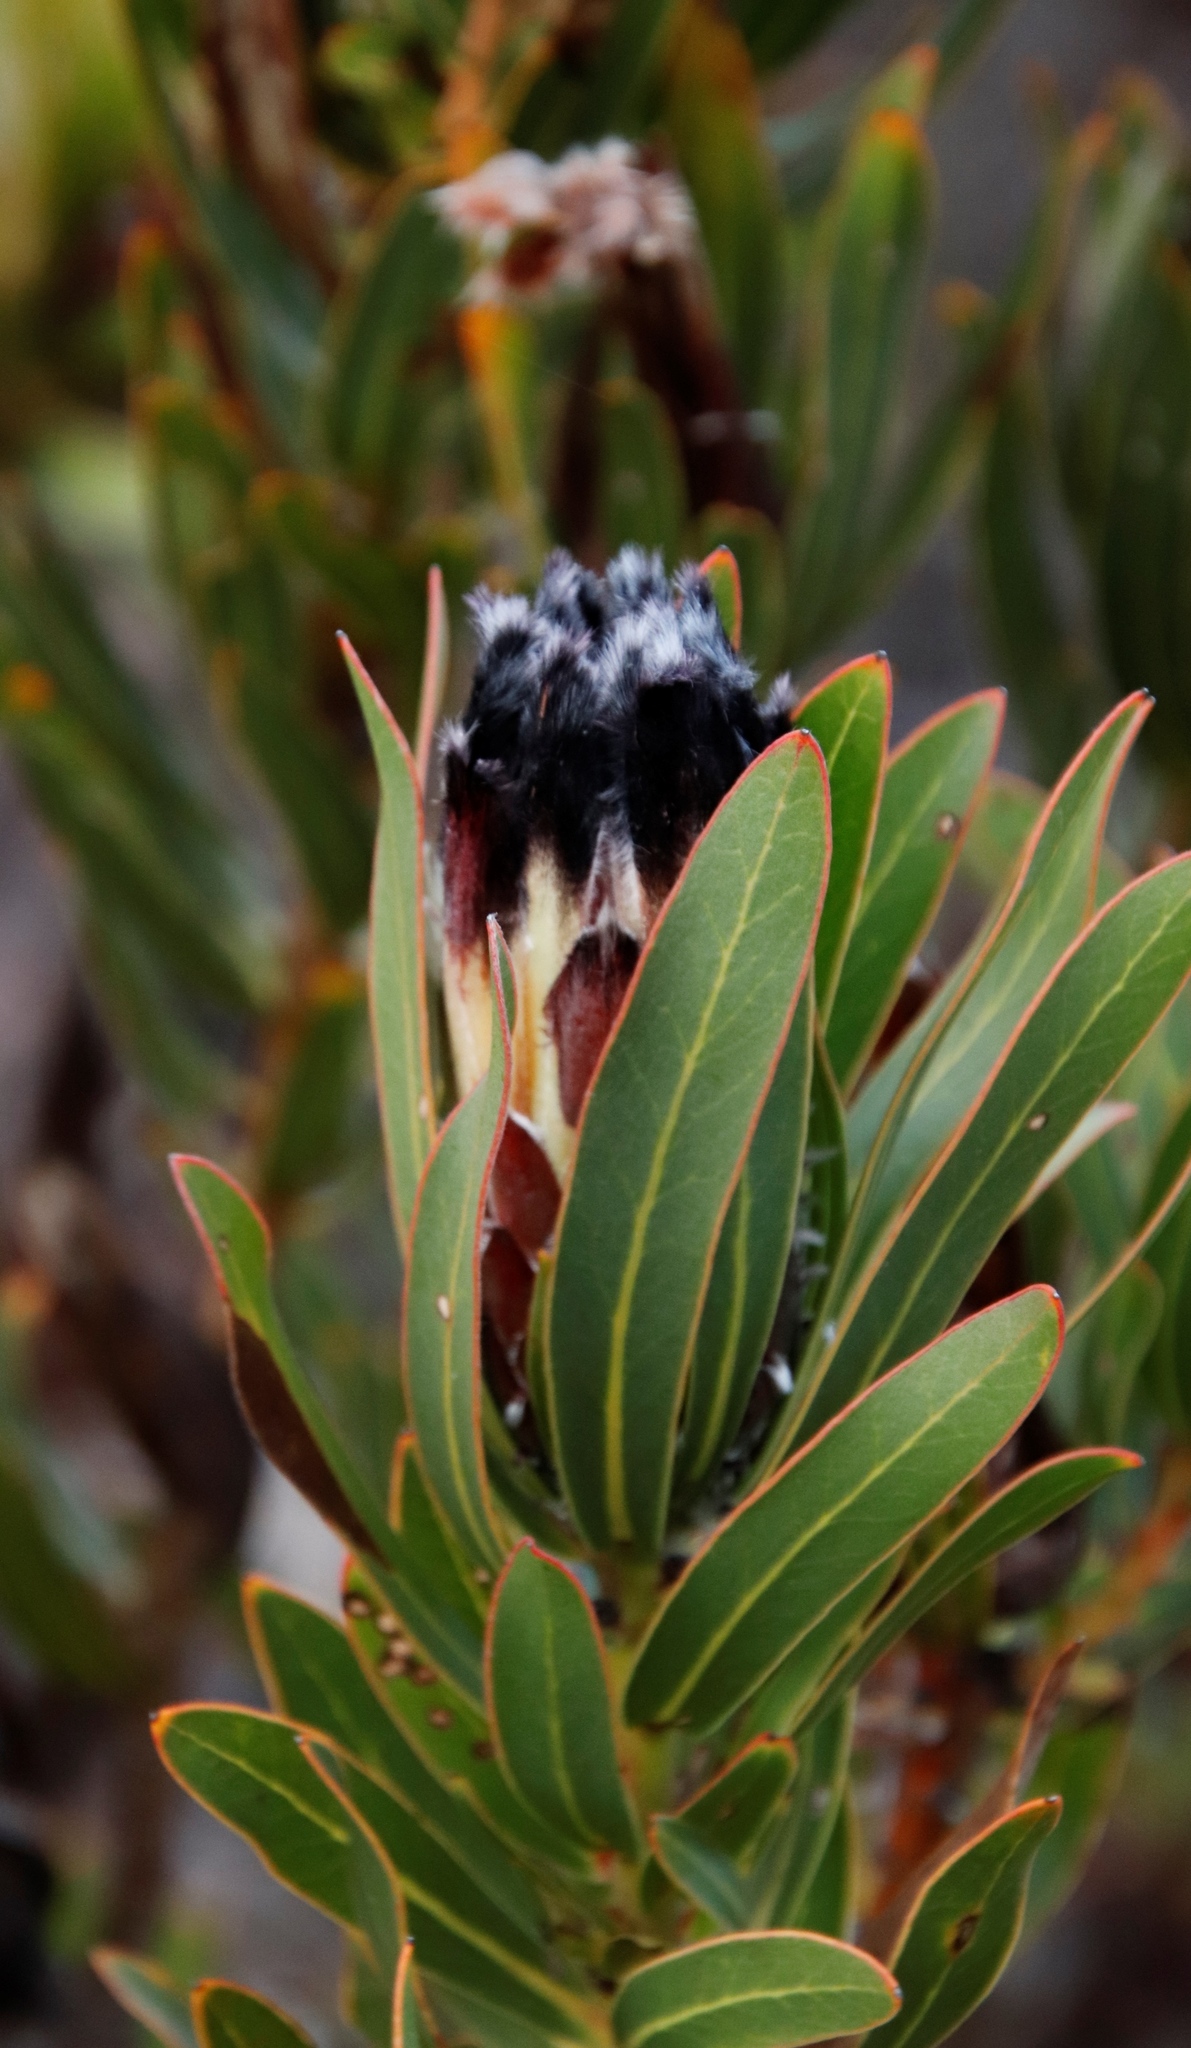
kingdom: Plantae
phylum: Tracheophyta
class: Magnoliopsida
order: Proteales
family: Proteaceae
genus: Protea
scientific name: Protea lepidocarpodendron
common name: Black-bearded protea
